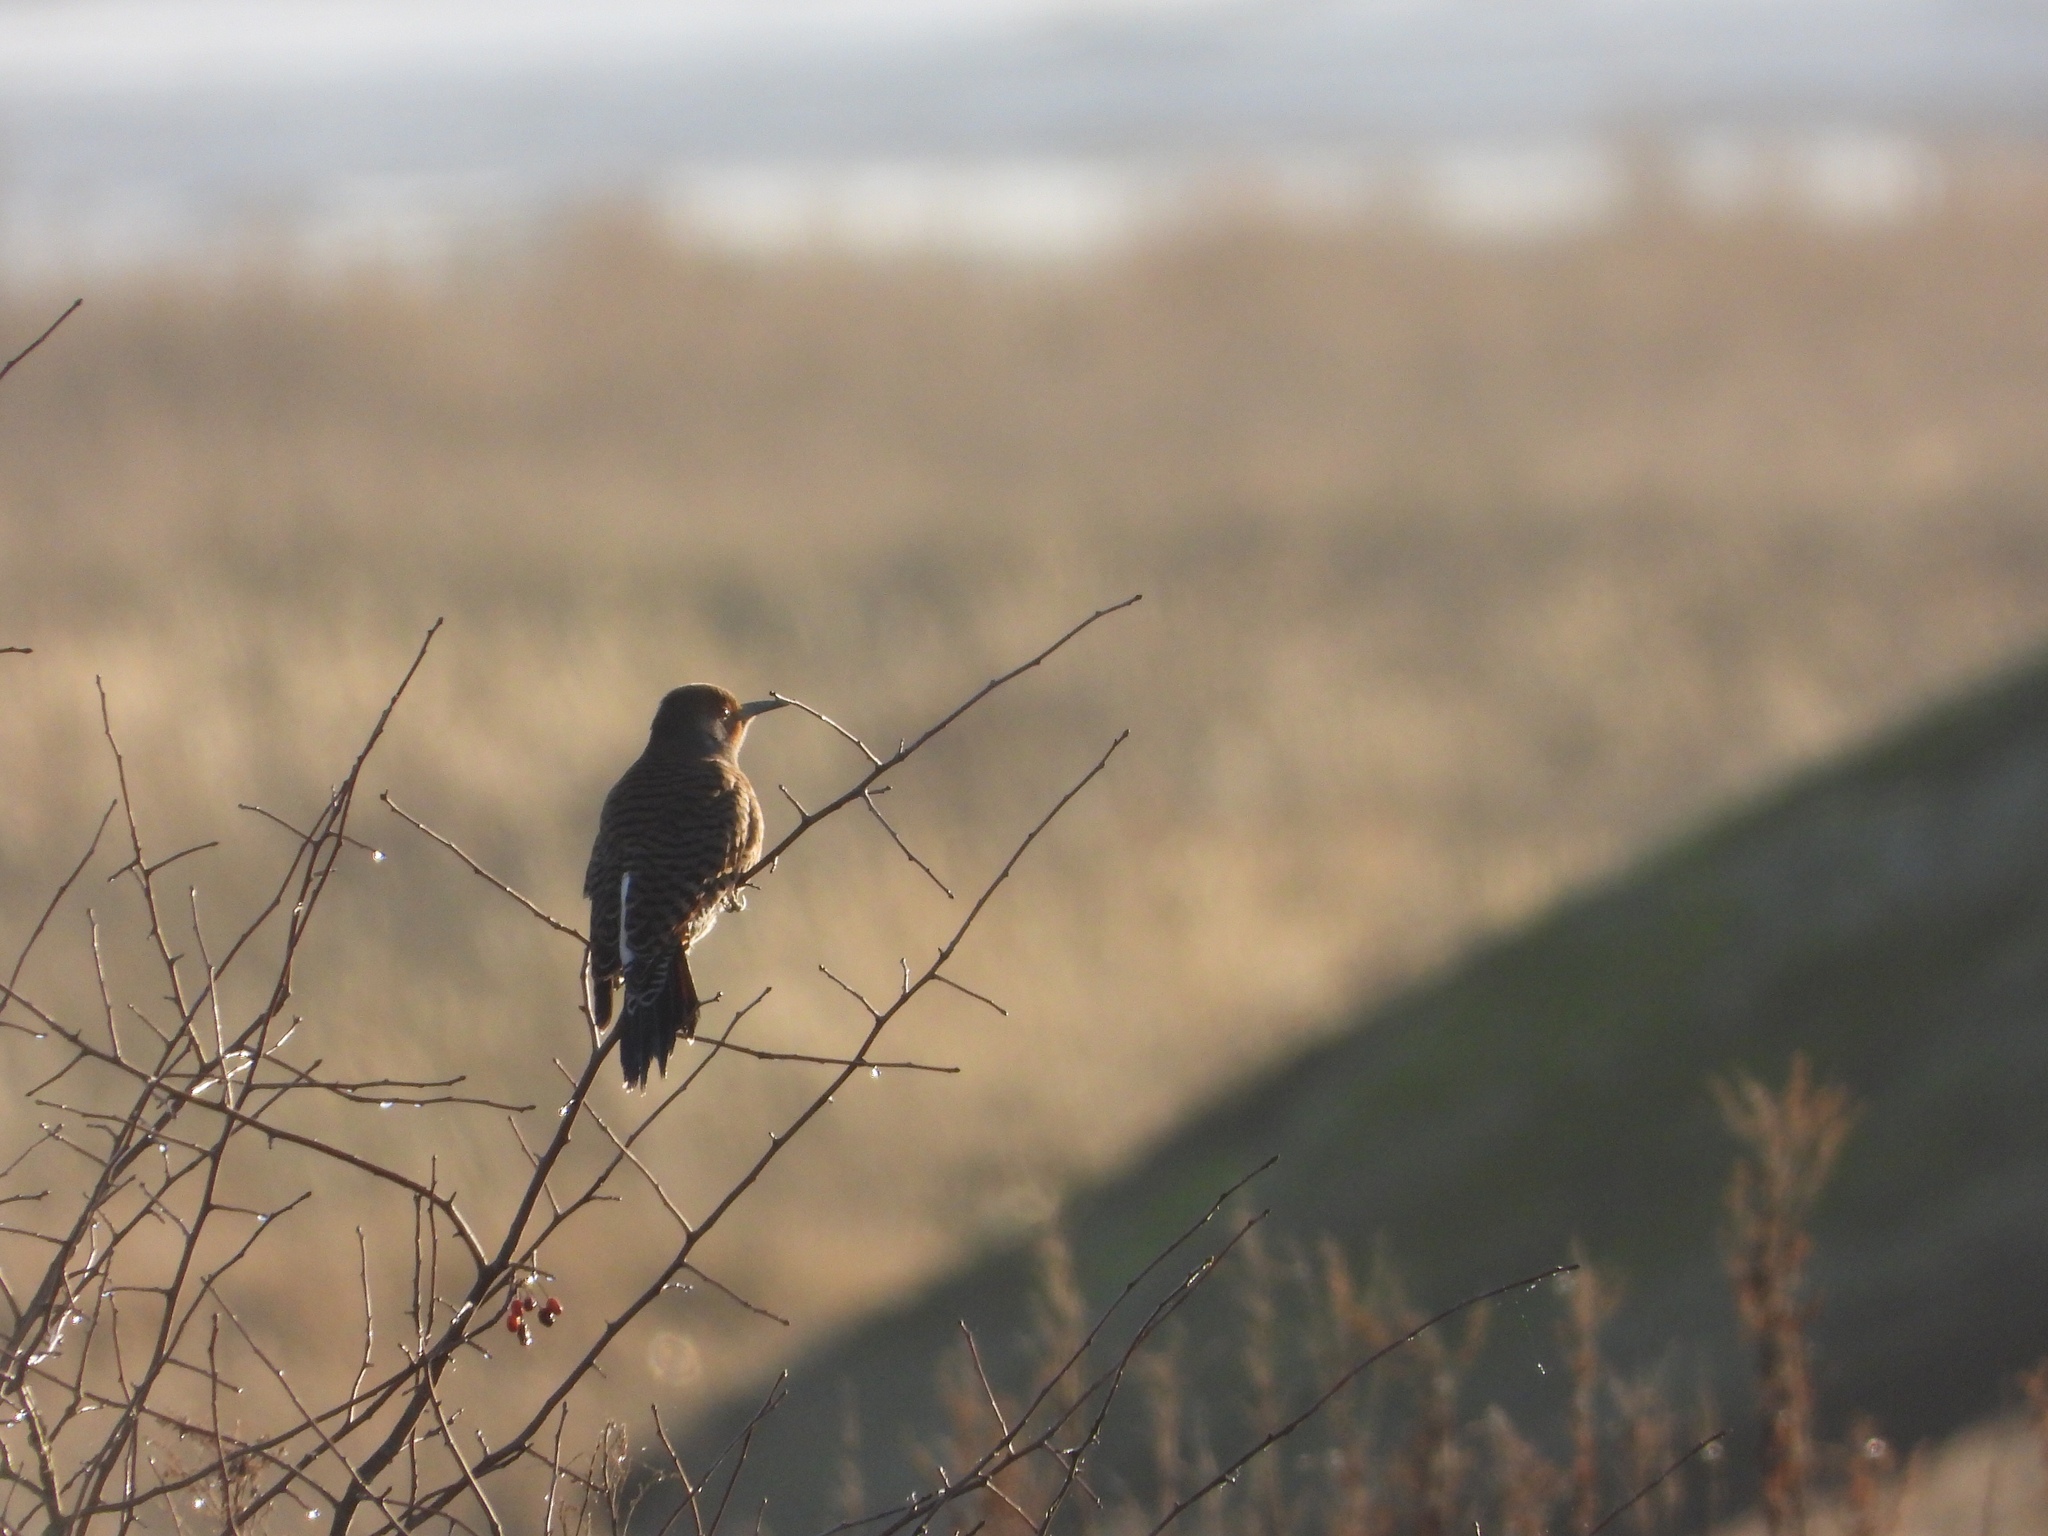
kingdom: Animalia
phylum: Chordata
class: Aves
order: Piciformes
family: Picidae
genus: Colaptes
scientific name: Colaptes auratus
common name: Northern flicker
